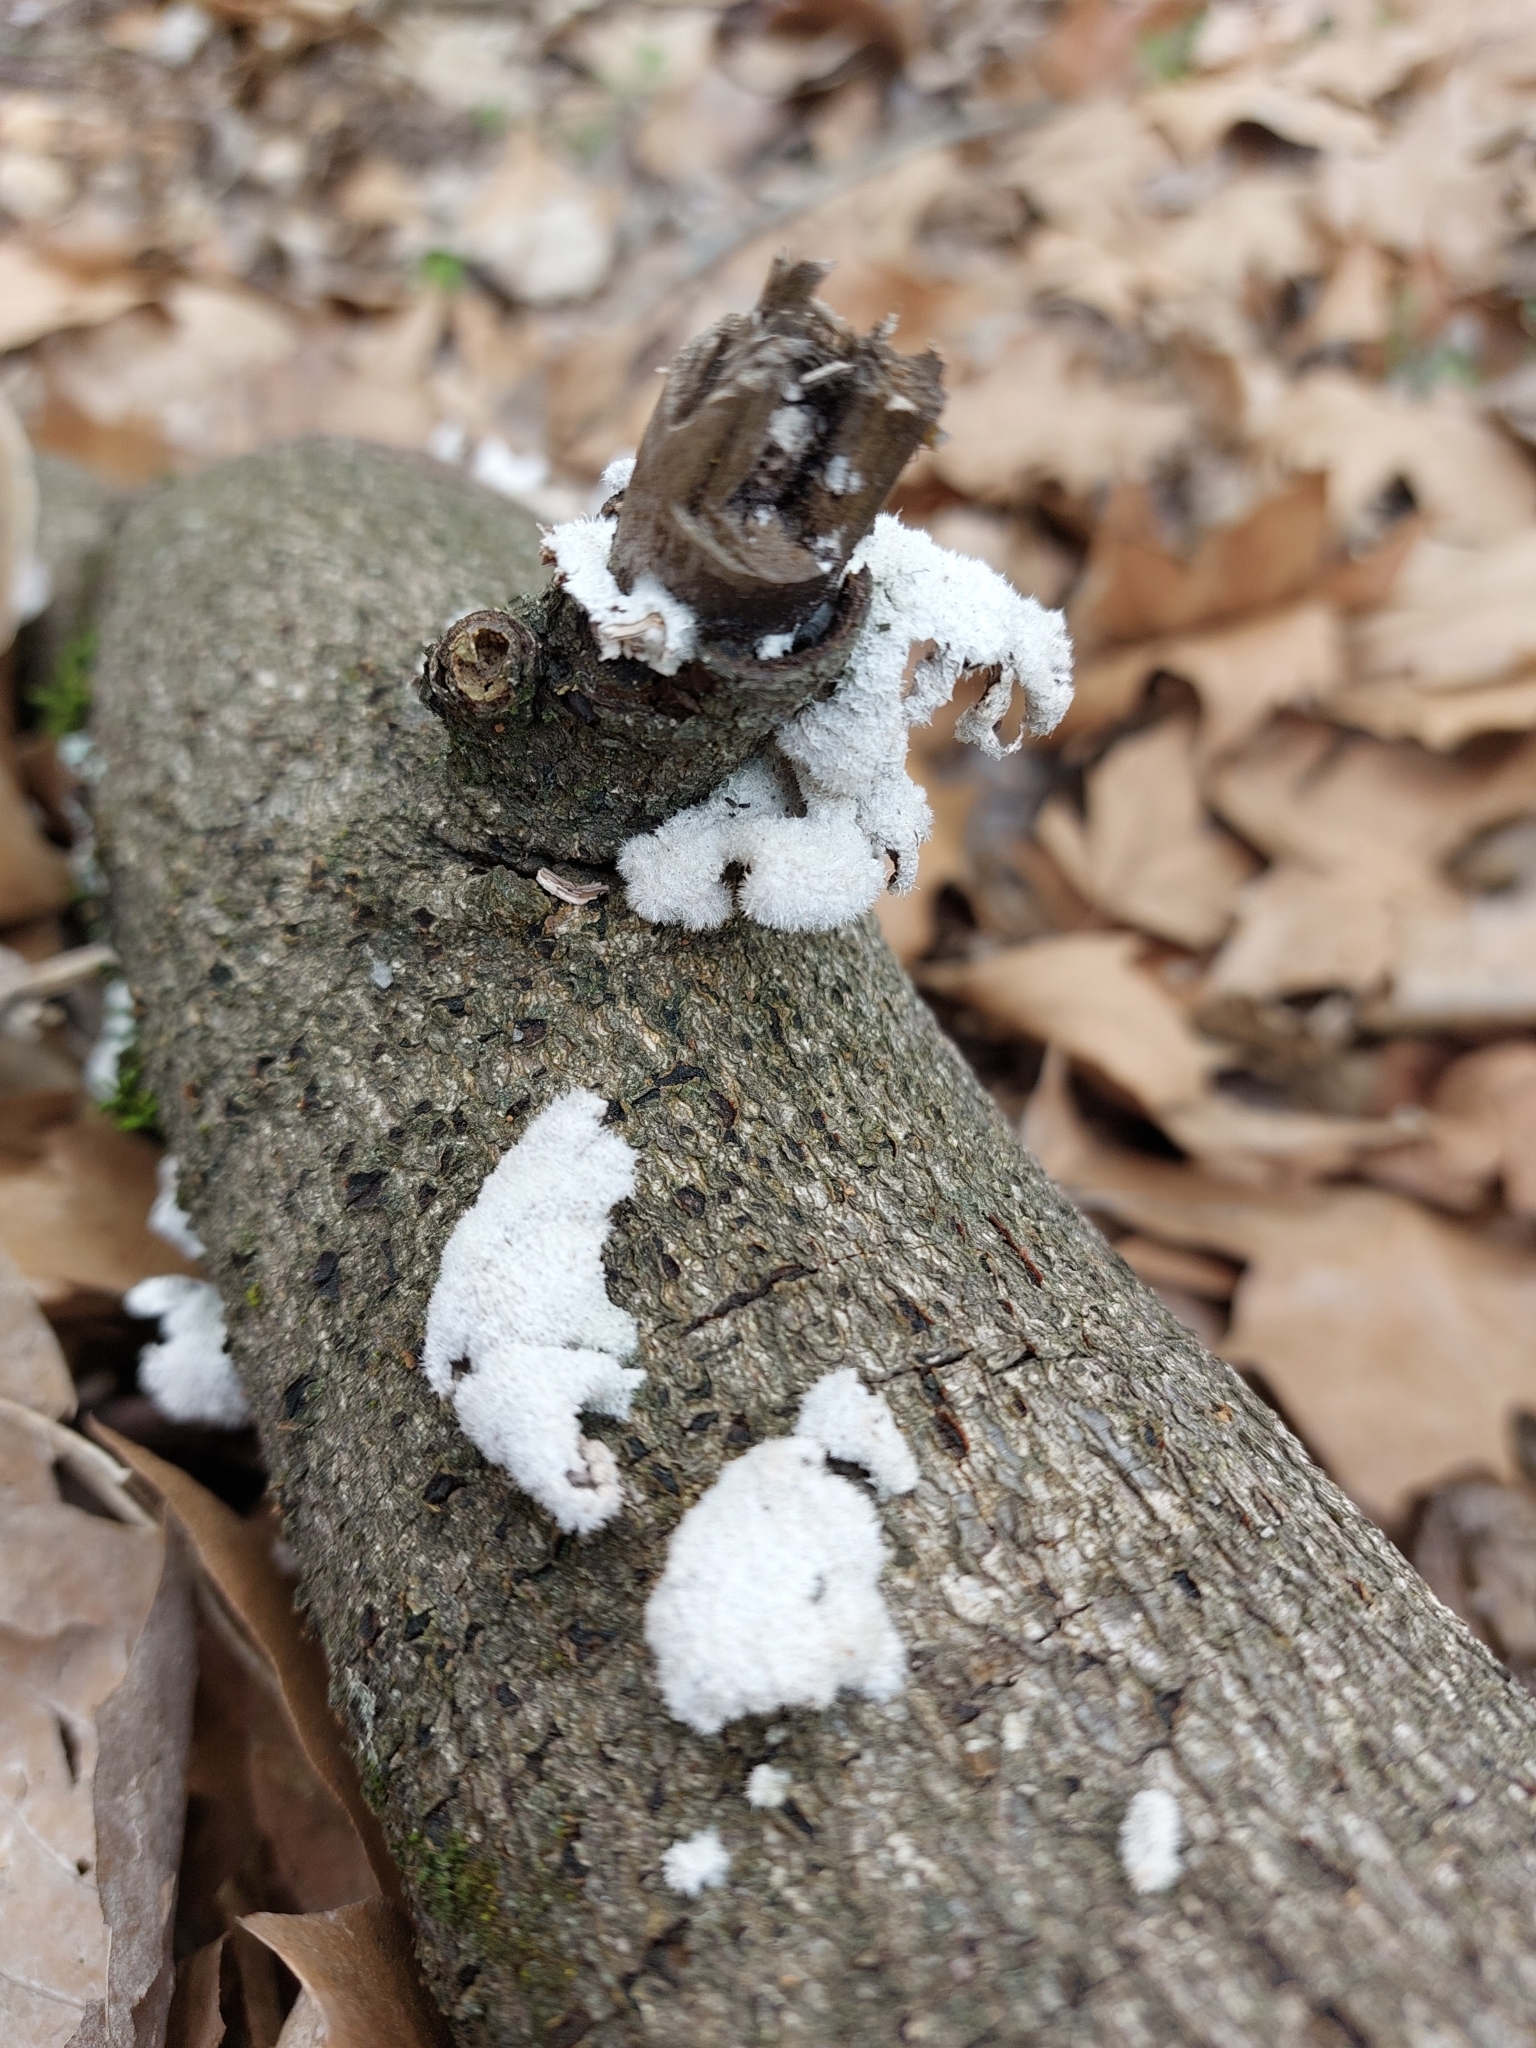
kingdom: Fungi
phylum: Basidiomycota
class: Agaricomycetes
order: Agaricales
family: Schizophyllaceae
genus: Schizophyllum
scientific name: Schizophyllum commune
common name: Common porecrust
